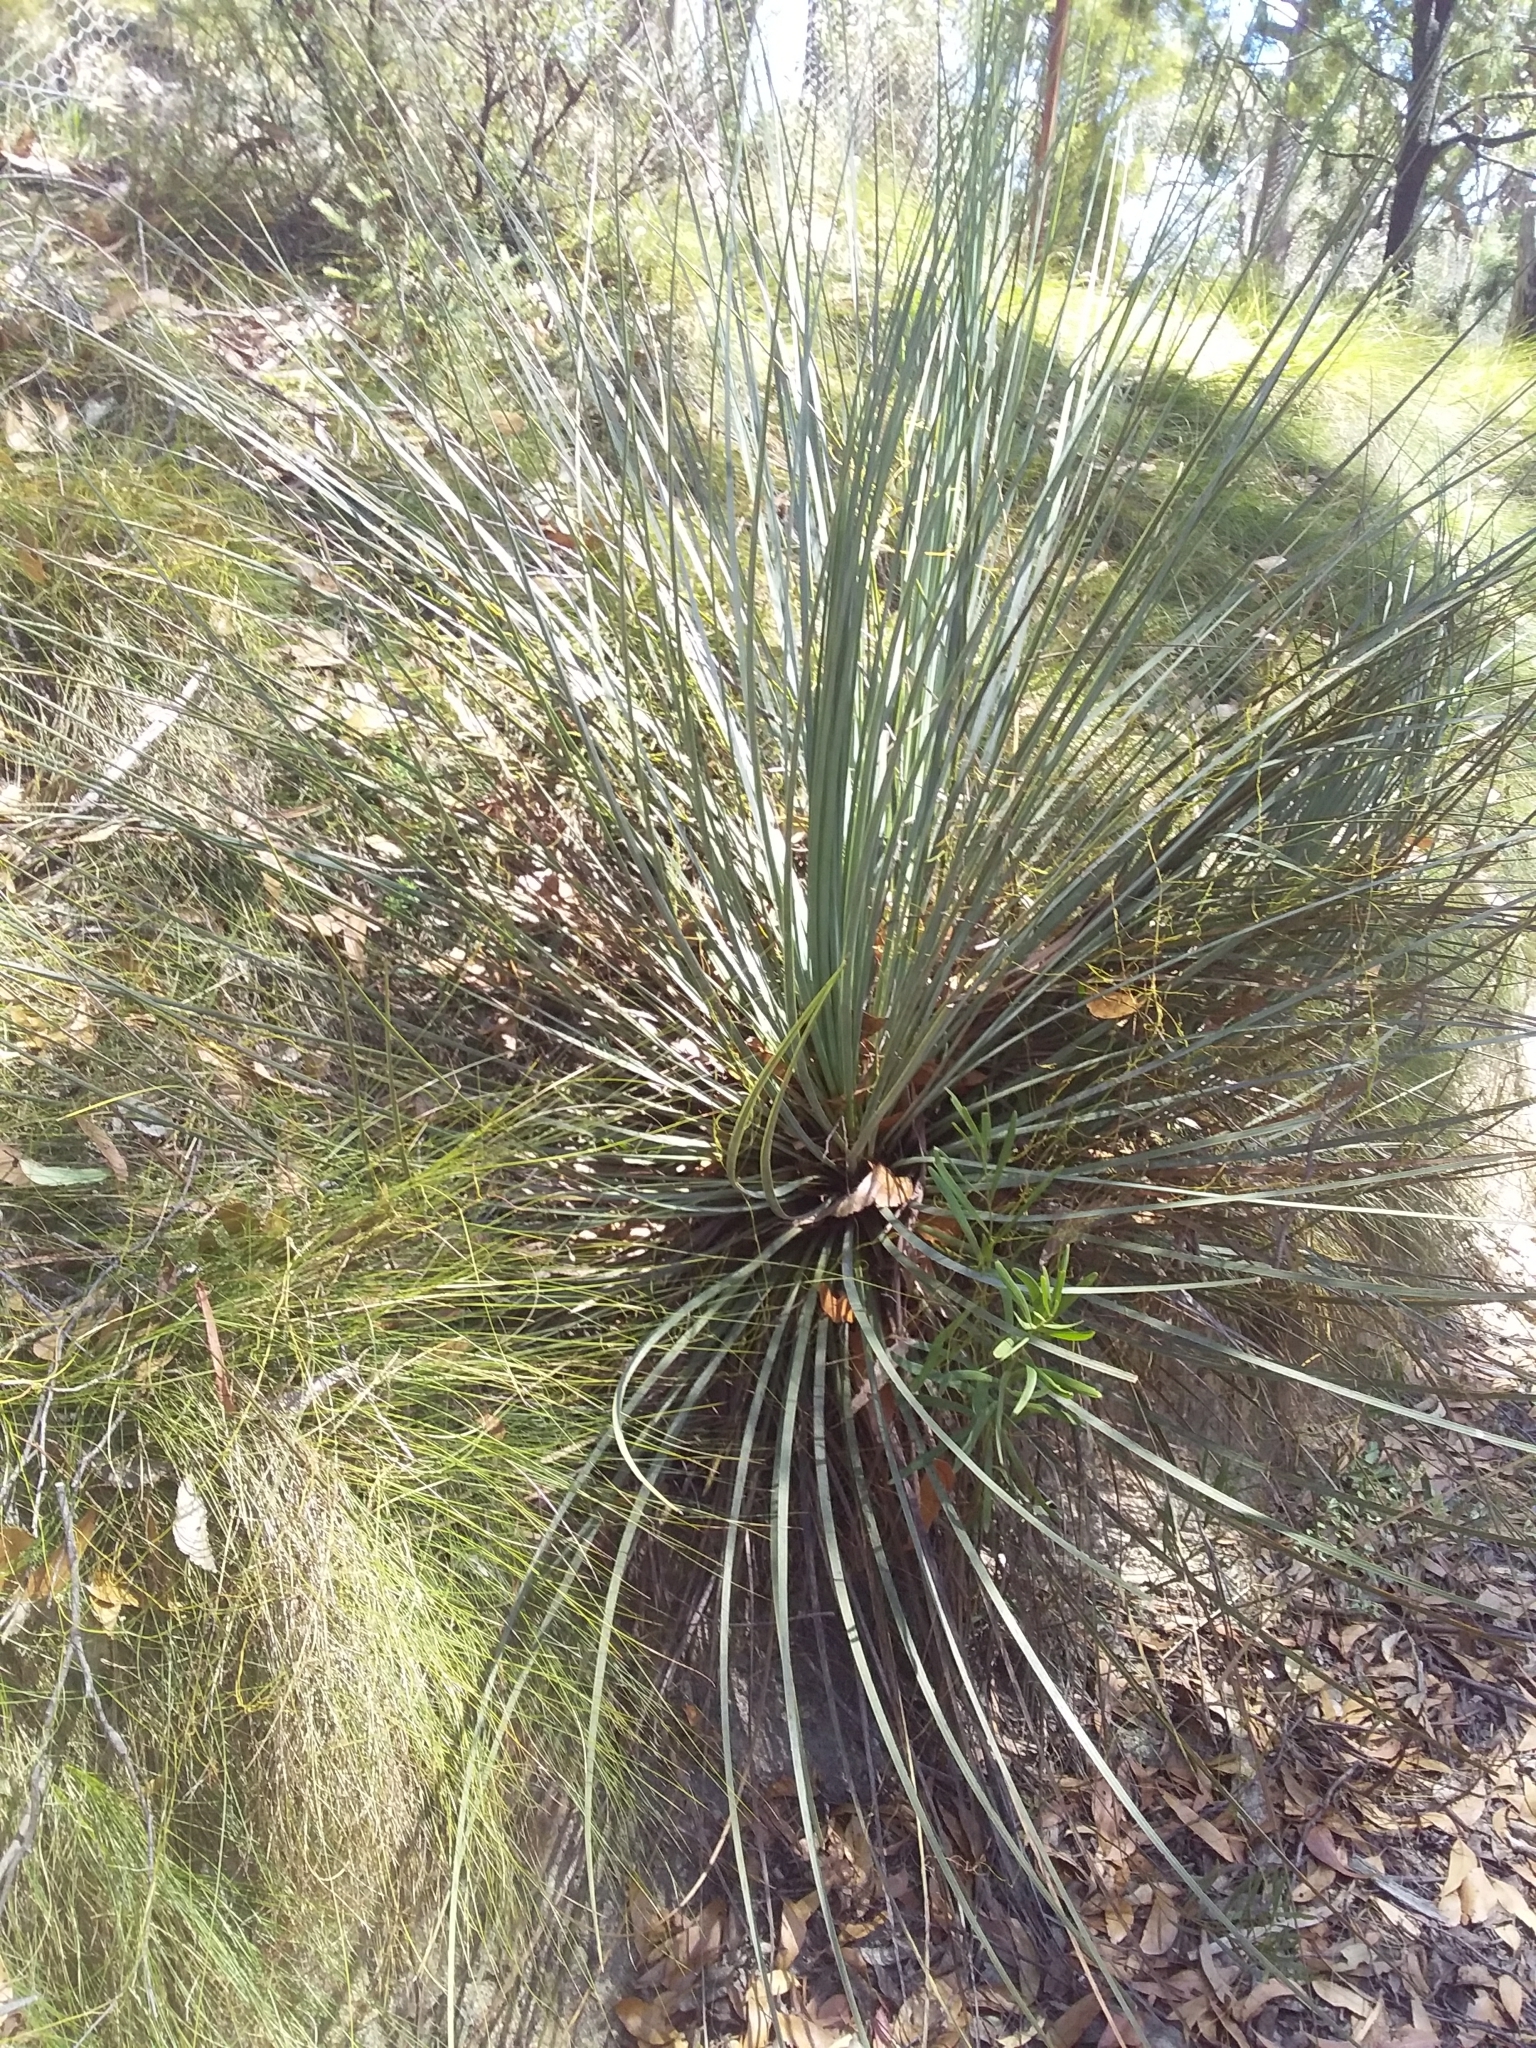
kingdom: Plantae
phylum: Tracheophyta
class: Liliopsida
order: Asparagales
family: Asphodelaceae
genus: Xanthorrhoea
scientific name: Xanthorrhoea semiplana
